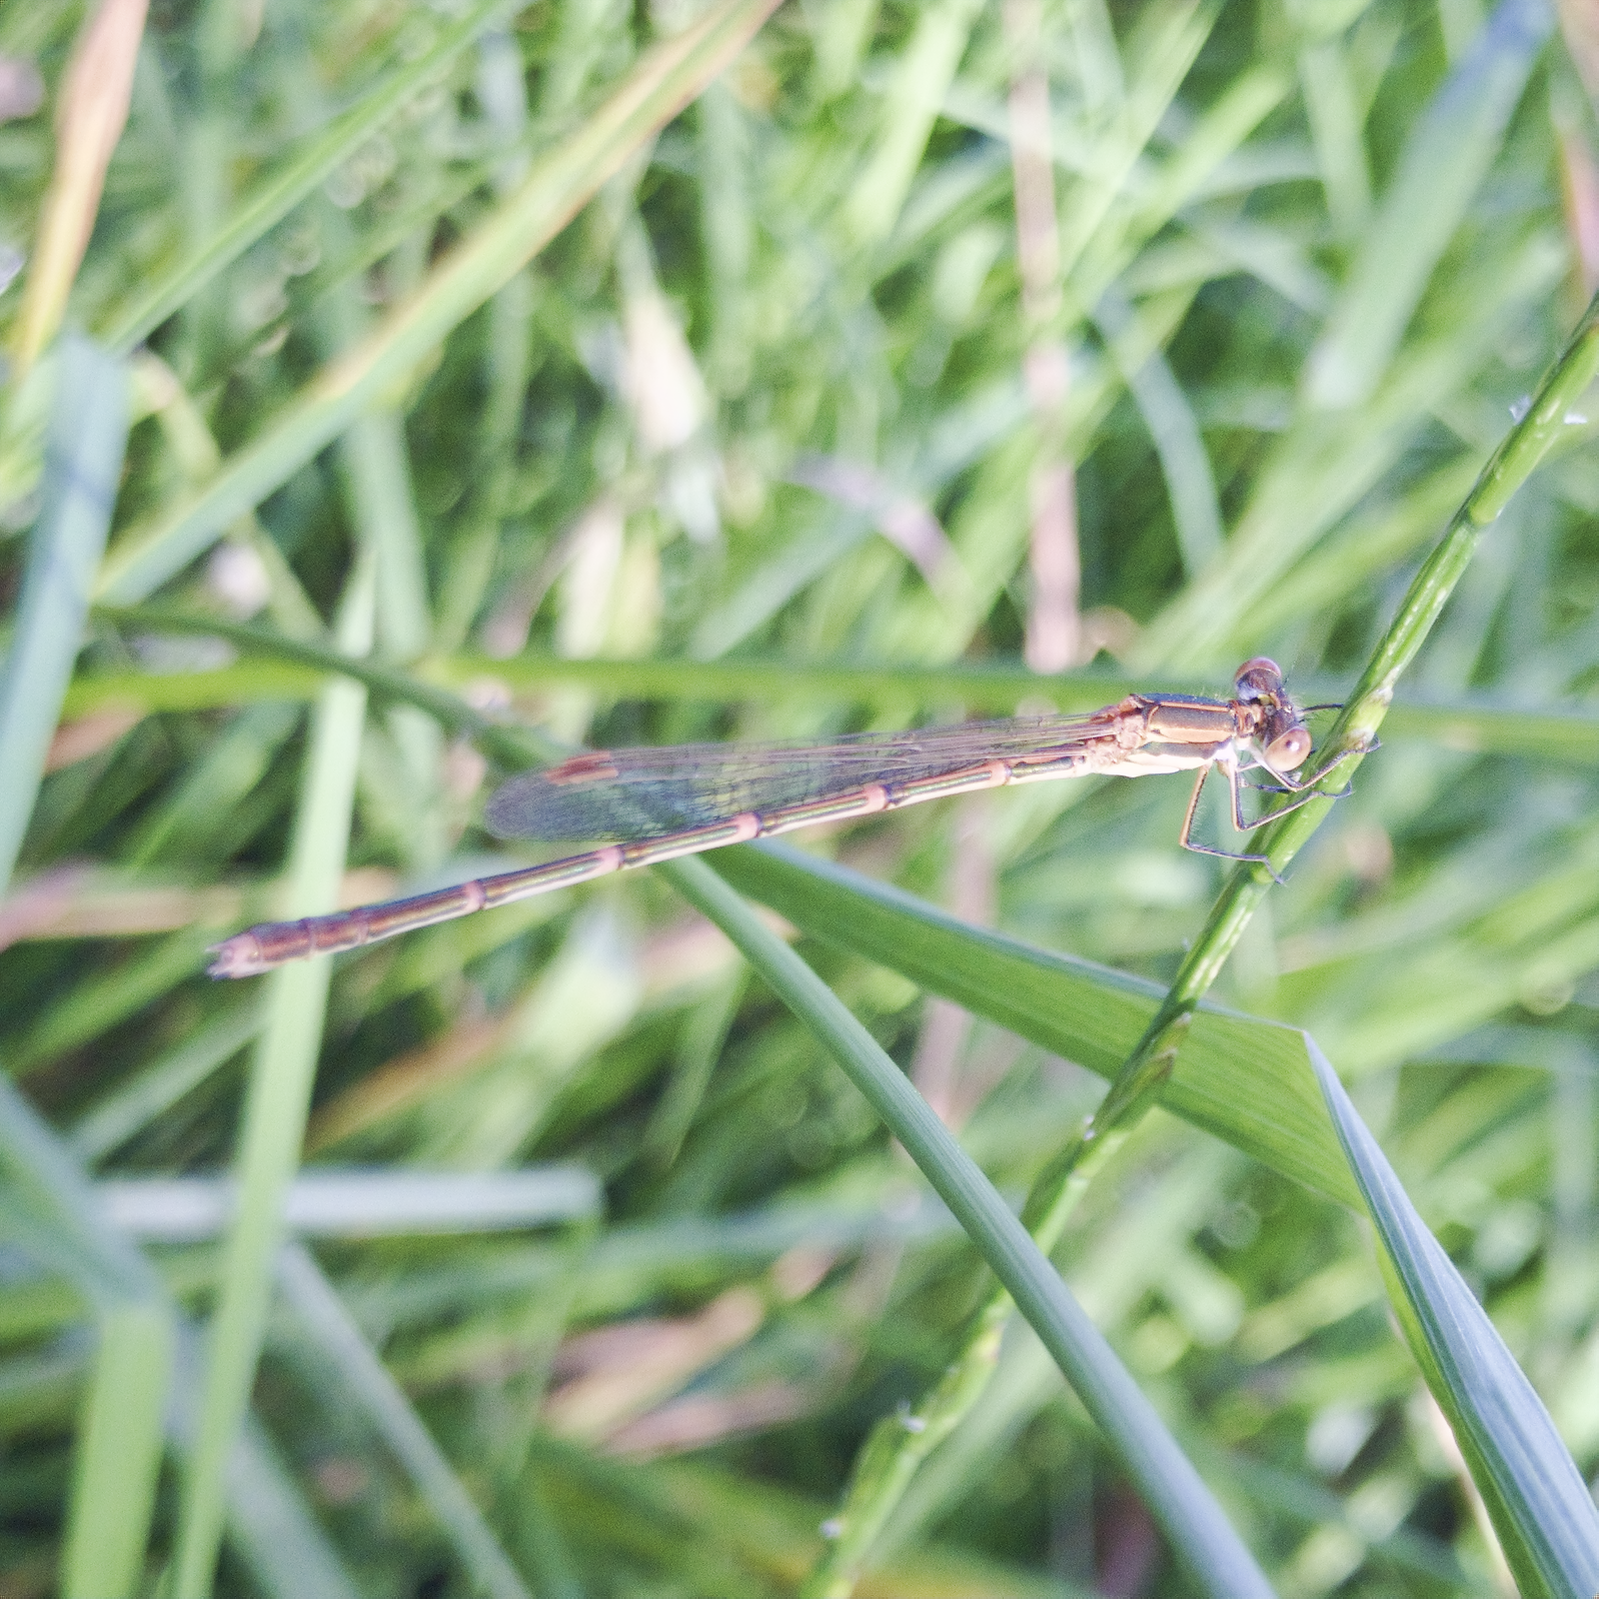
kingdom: Animalia
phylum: Arthropoda
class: Insecta
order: Odonata
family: Lestidae
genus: Austrolestes
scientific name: Austrolestes analis
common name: Slender ringtail
